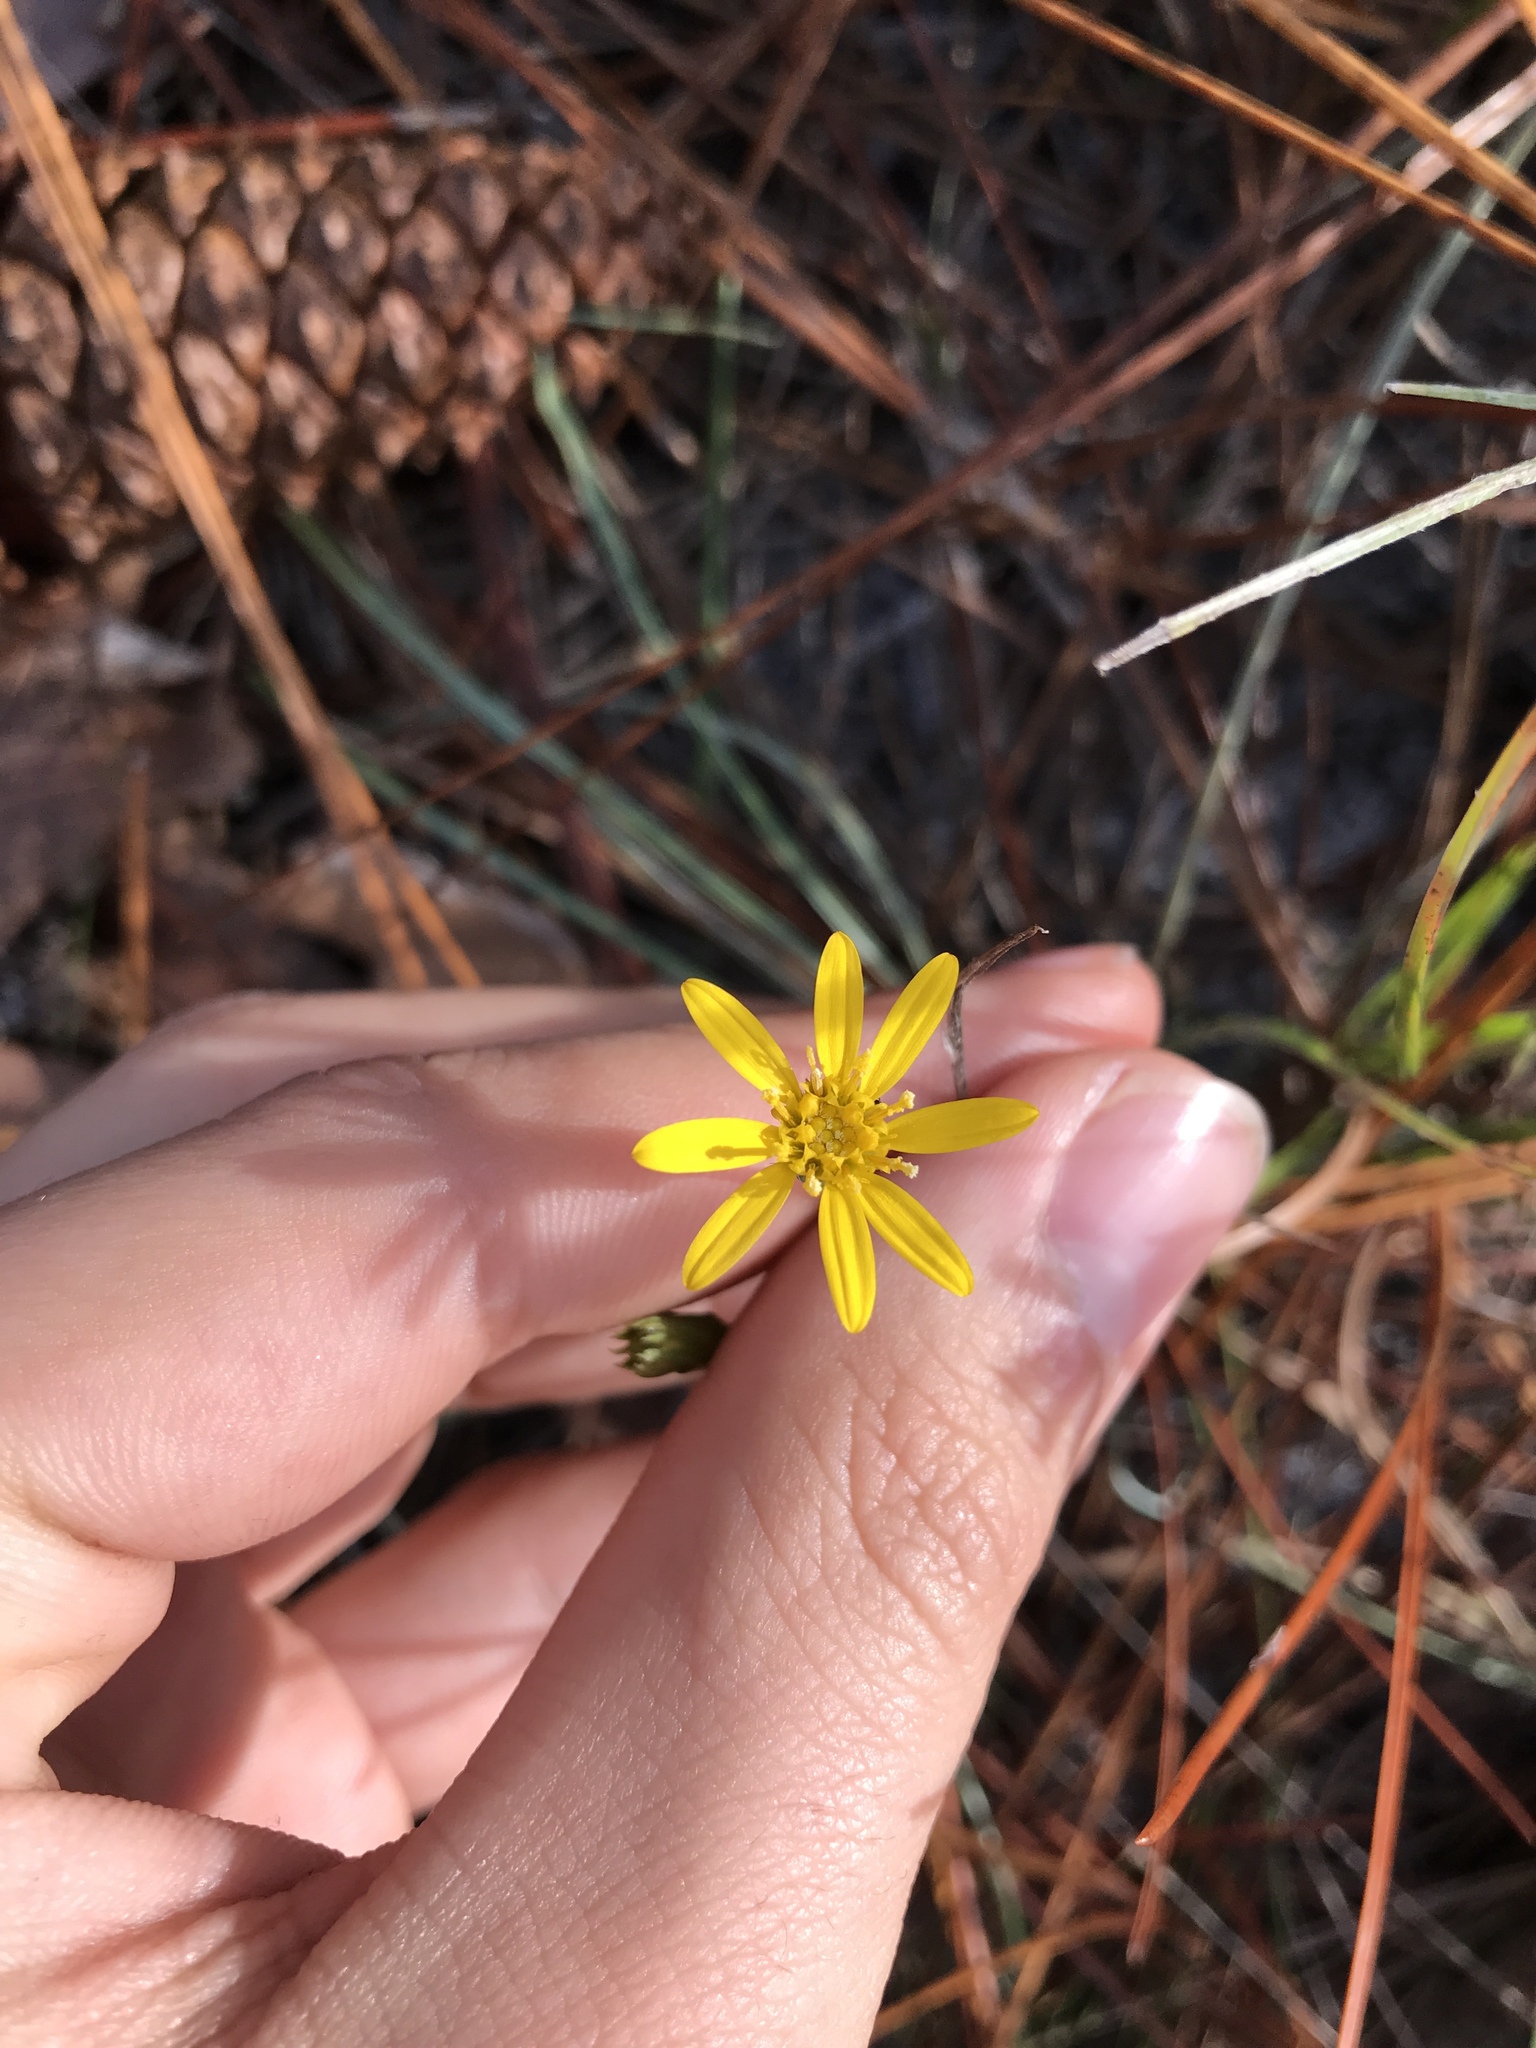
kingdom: Plantae
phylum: Tracheophyta
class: Magnoliopsida
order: Asterales
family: Asteraceae
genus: Pityopsis
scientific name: Pityopsis graminifolia
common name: Grass-leaf golden-aster
